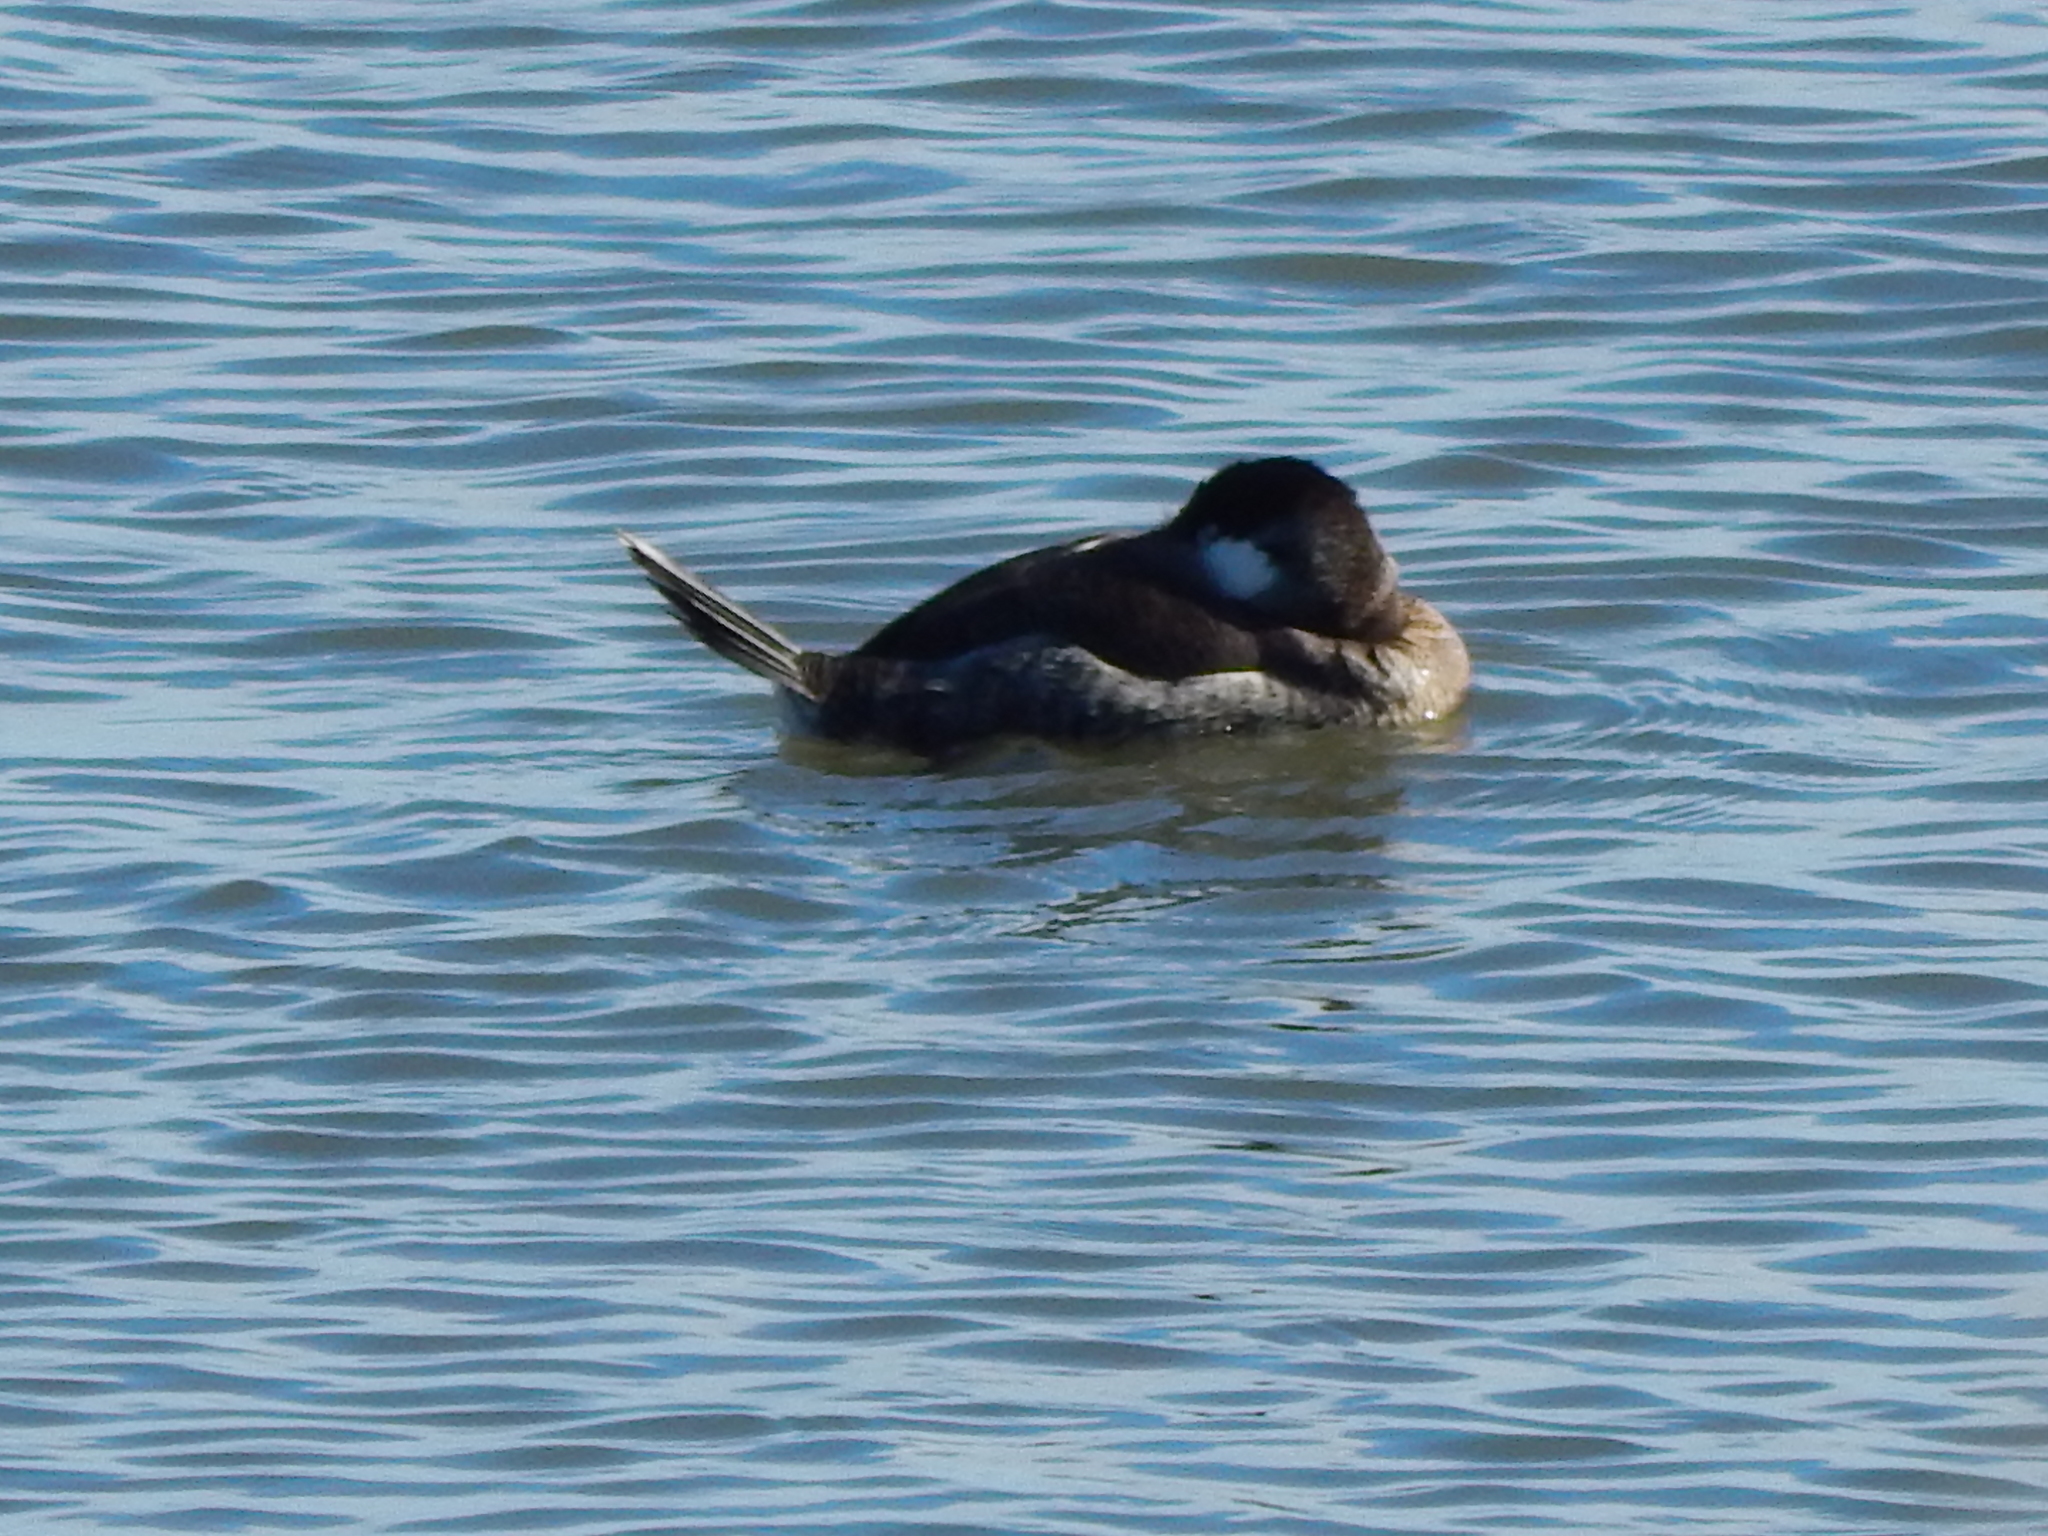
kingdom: Animalia
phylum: Chordata
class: Aves
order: Anseriformes
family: Anatidae
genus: Oxyura
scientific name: Oxyura jamaicensis
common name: Ruddy duck
